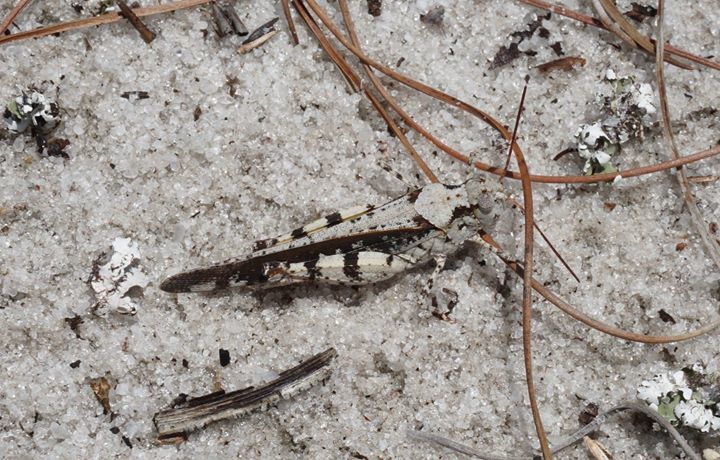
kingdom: Animalia
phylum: Arthropoda
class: Insecta
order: Orthoptera
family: Acrididae
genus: Spharagemon
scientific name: Spharagemon marmoratum
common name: Marbled grasshopper
